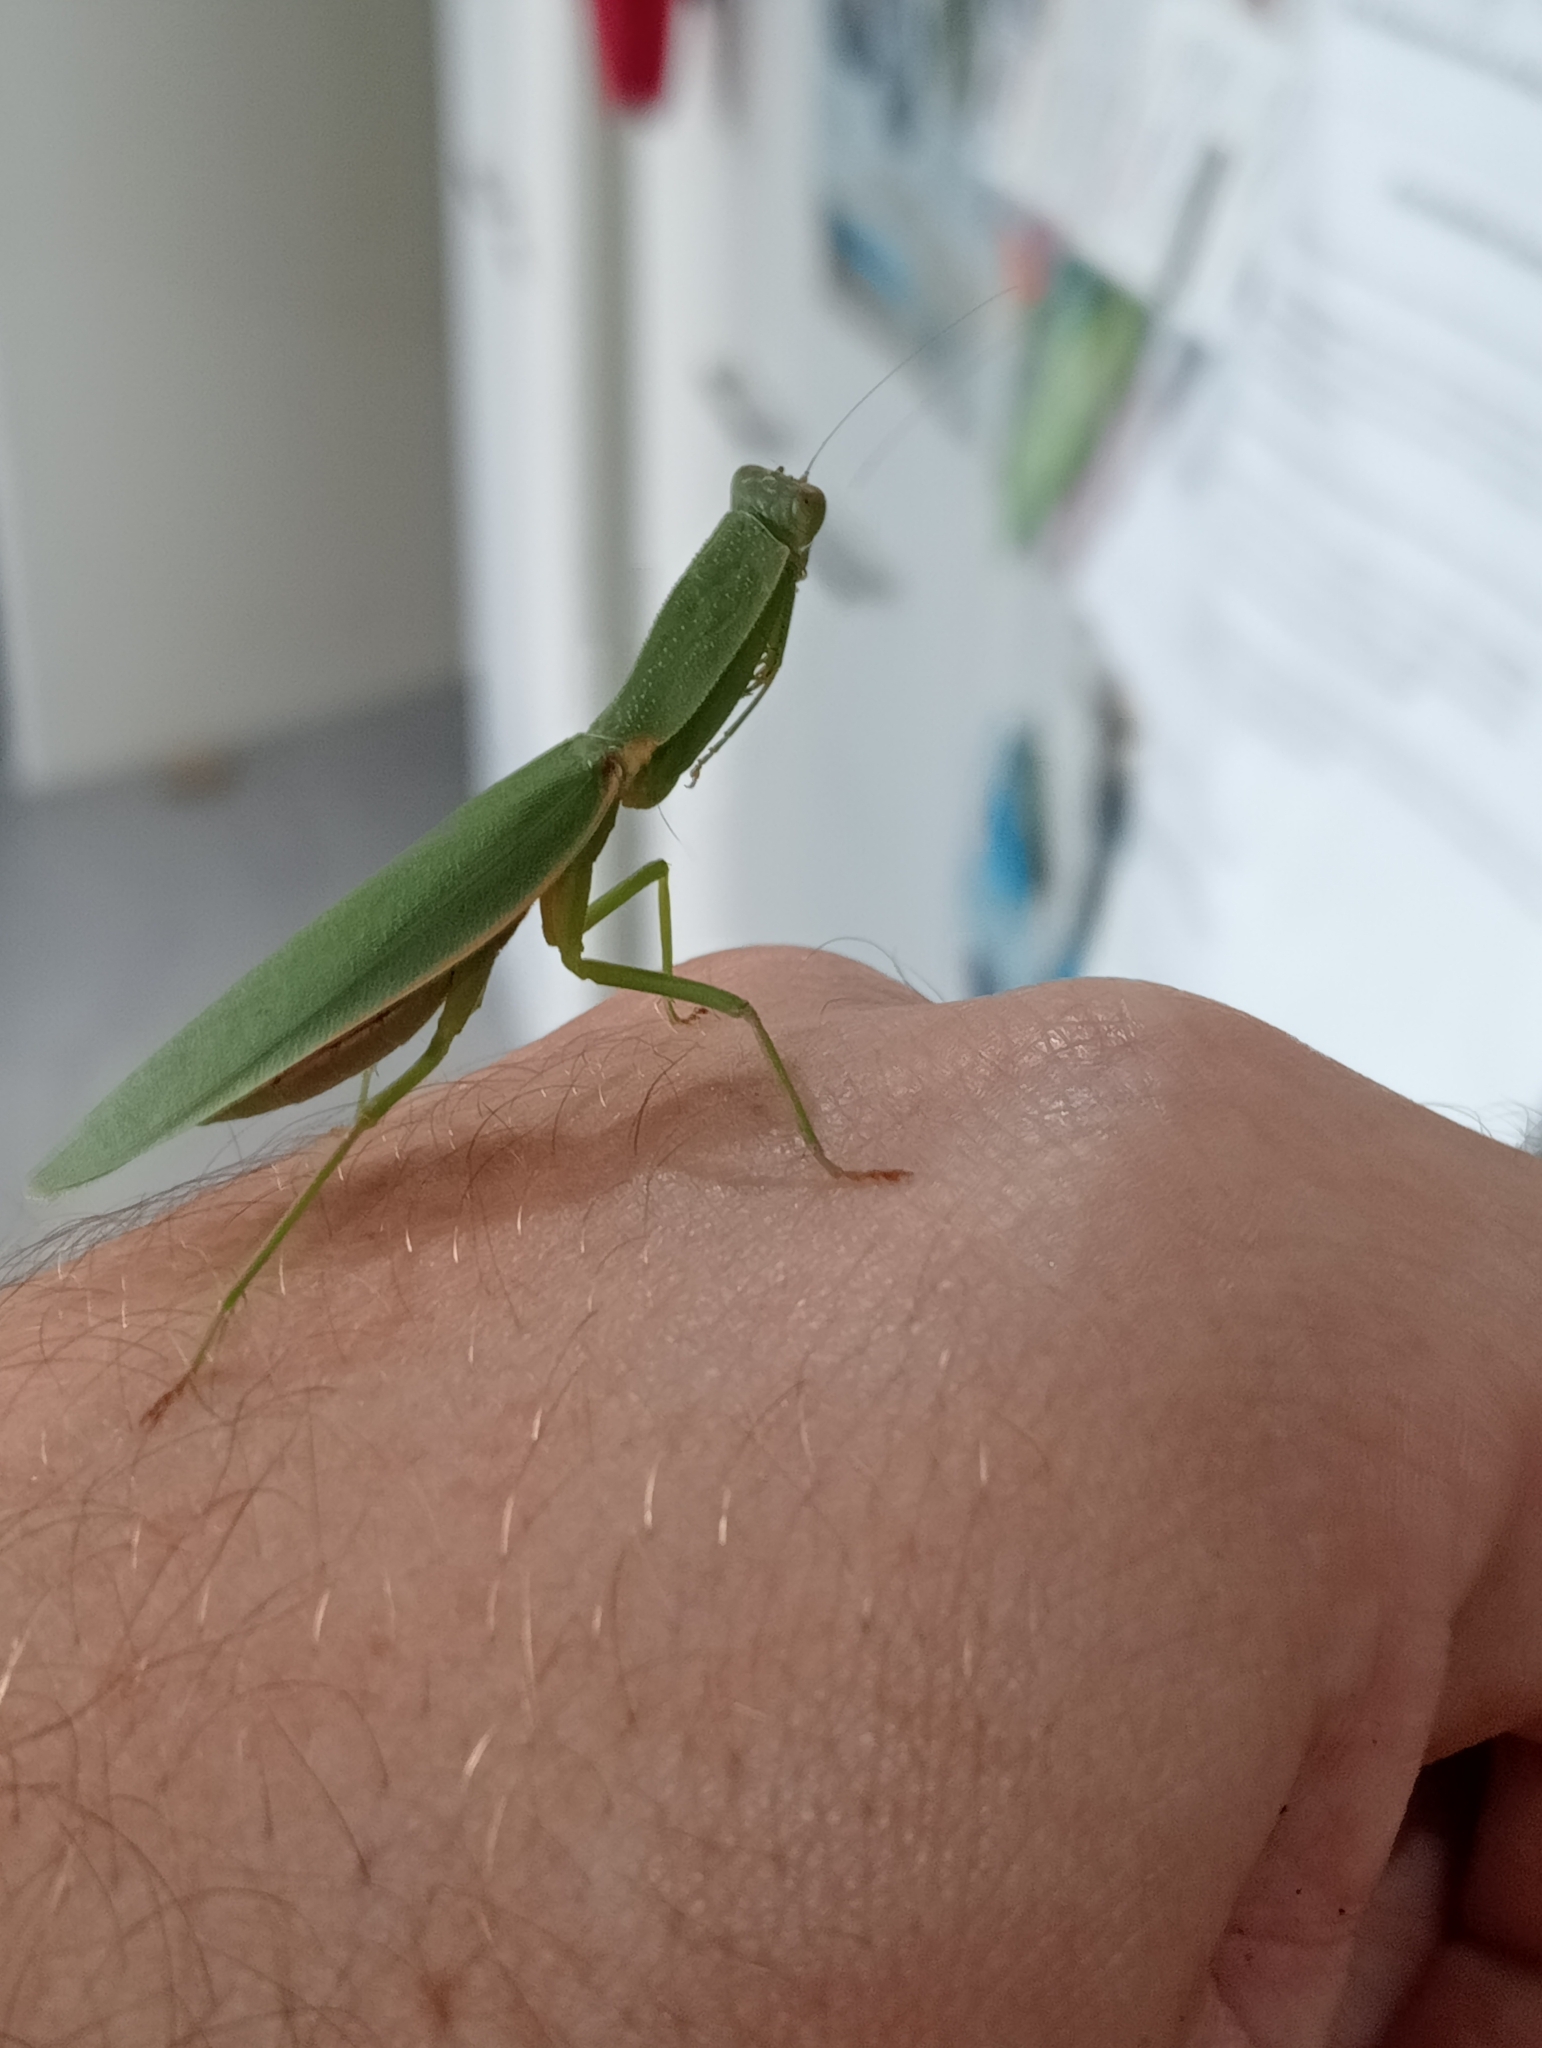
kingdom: Animalia
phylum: Arthropoda
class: Insecta
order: Mantodea
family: Mantidae
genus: Orthodera
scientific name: Orthodera novaezealandiae
